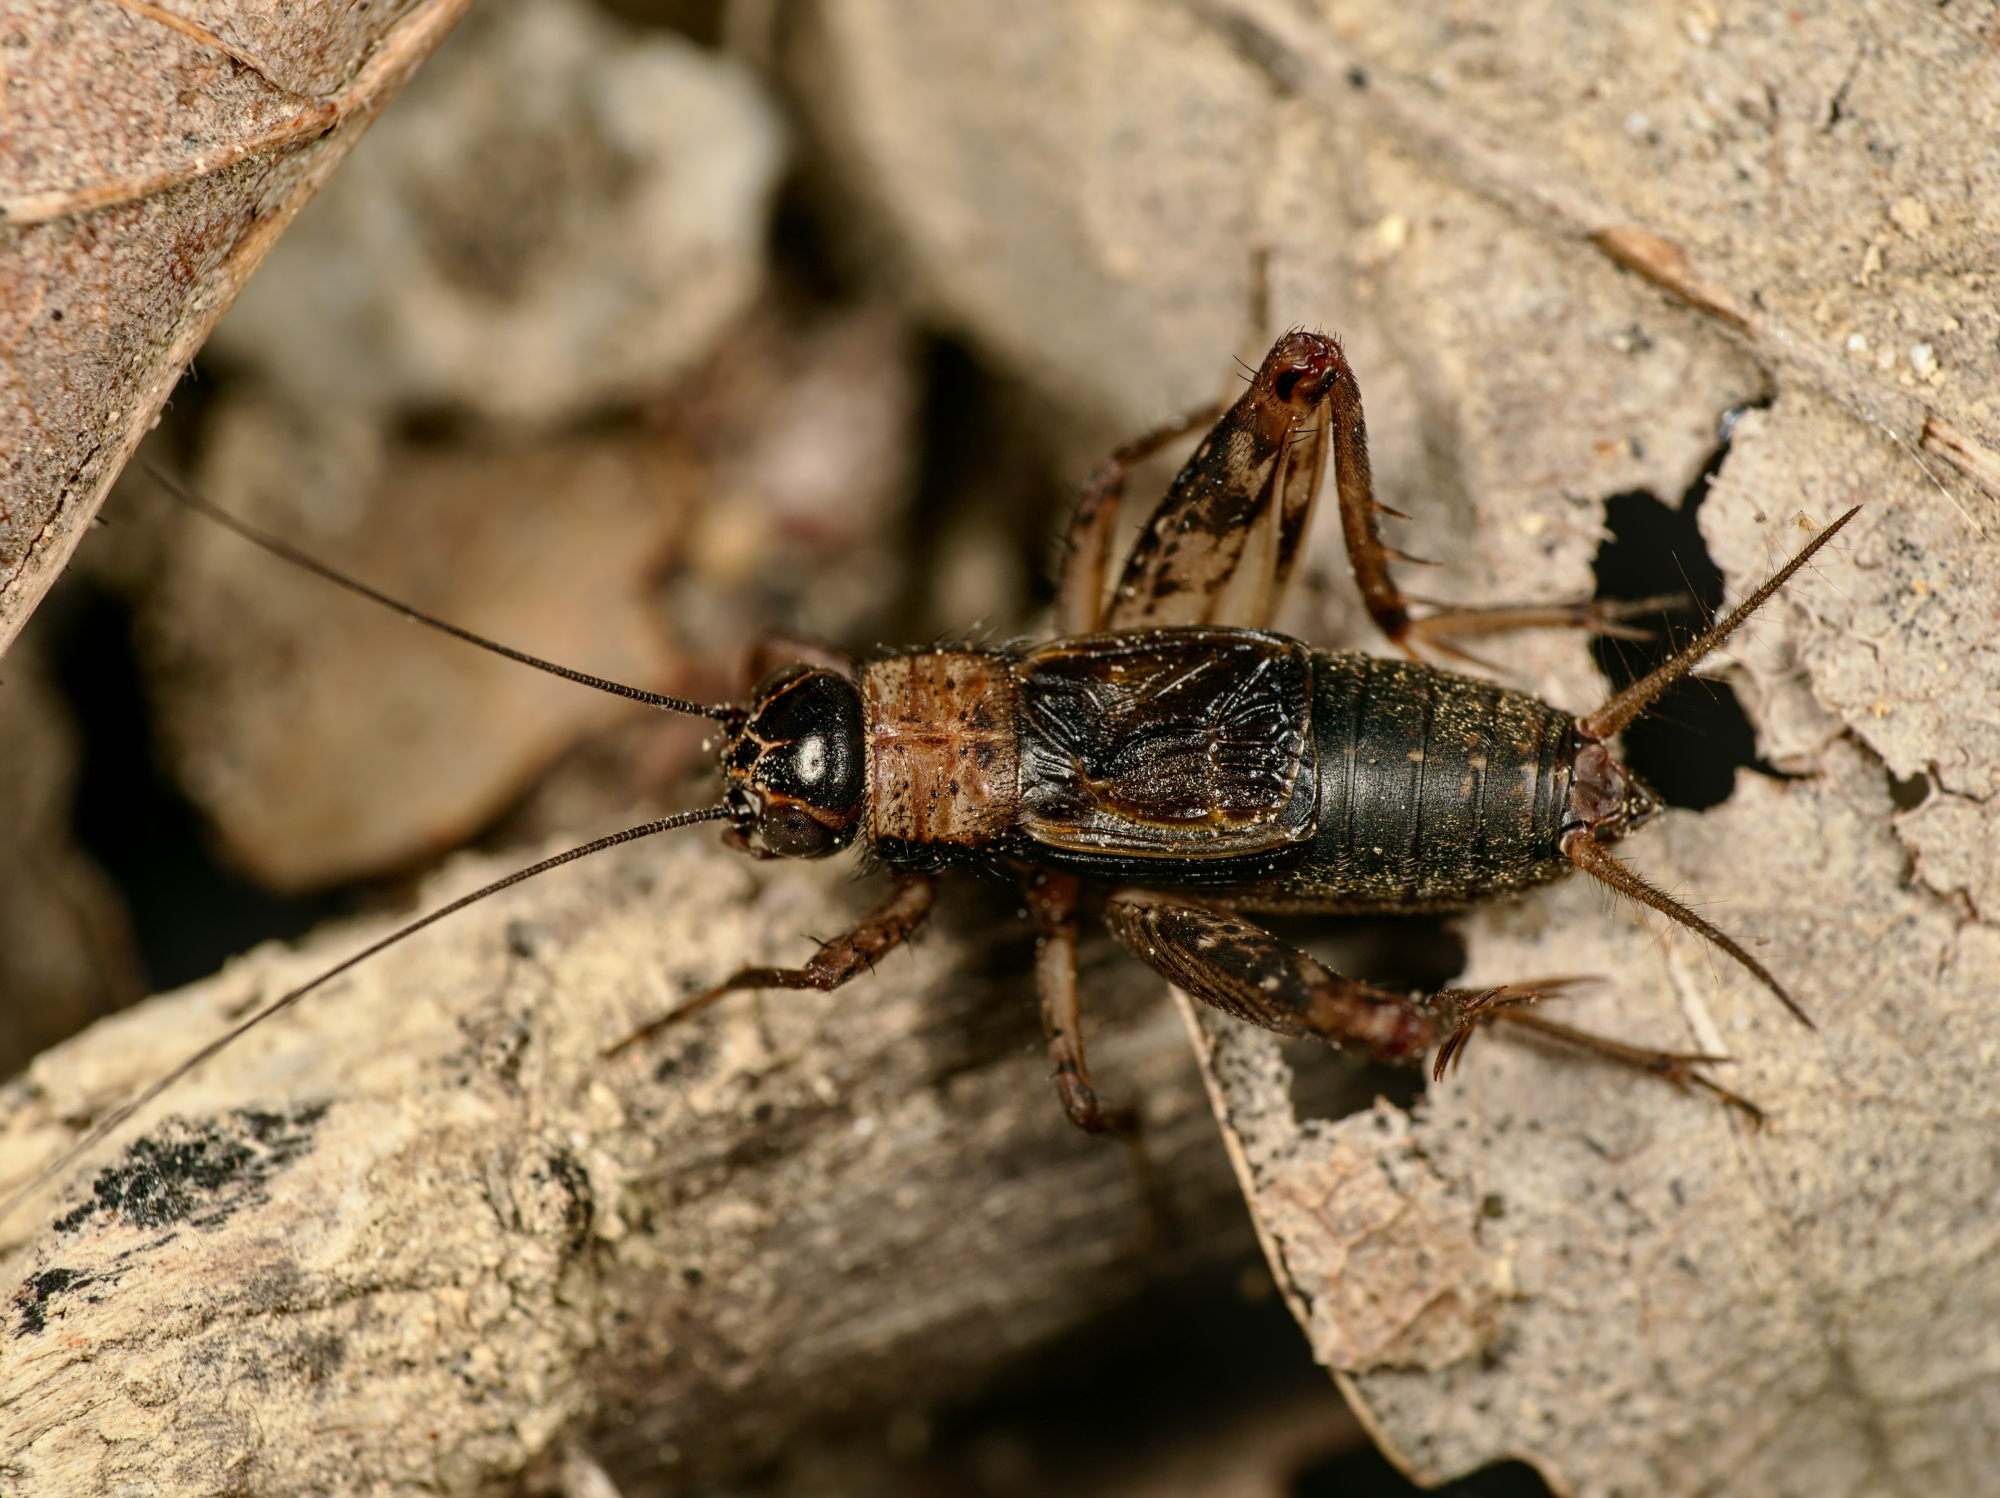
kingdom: Animalia
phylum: Arthropoda
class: Insecta
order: Orthoptera
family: Trigonidiidae
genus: Nemobius
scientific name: Nemobius sylvestris
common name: Wood-cricket
